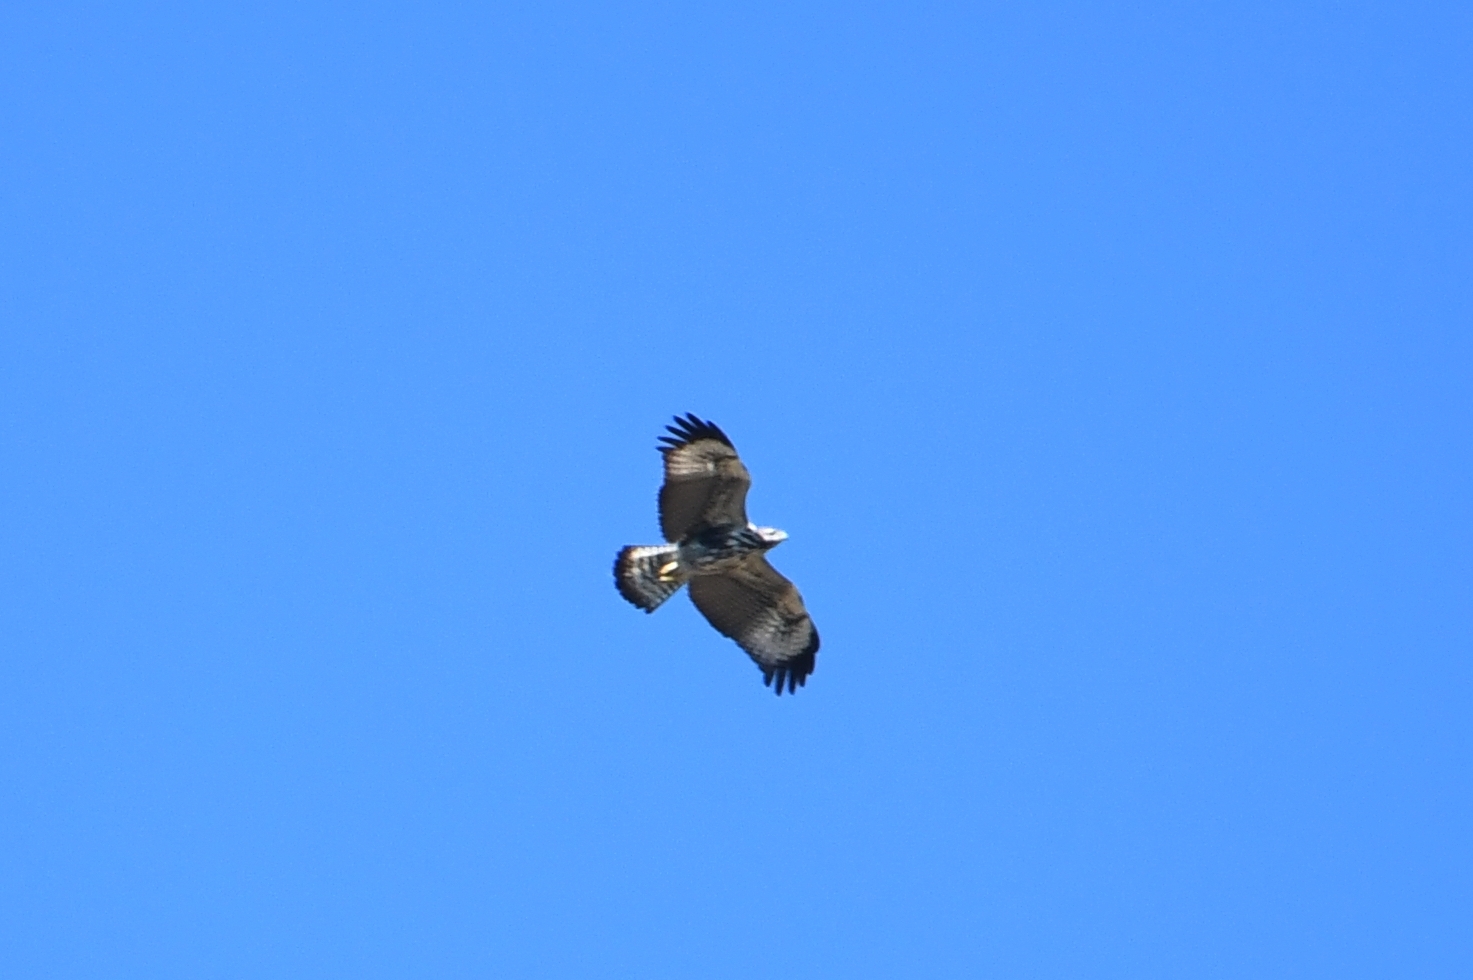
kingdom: Animalia
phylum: Chordata
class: Aves
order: Accipitriformes
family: Accipitridae
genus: Buteogallus
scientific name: Buteogallus anthracinus
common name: Common black hawk
